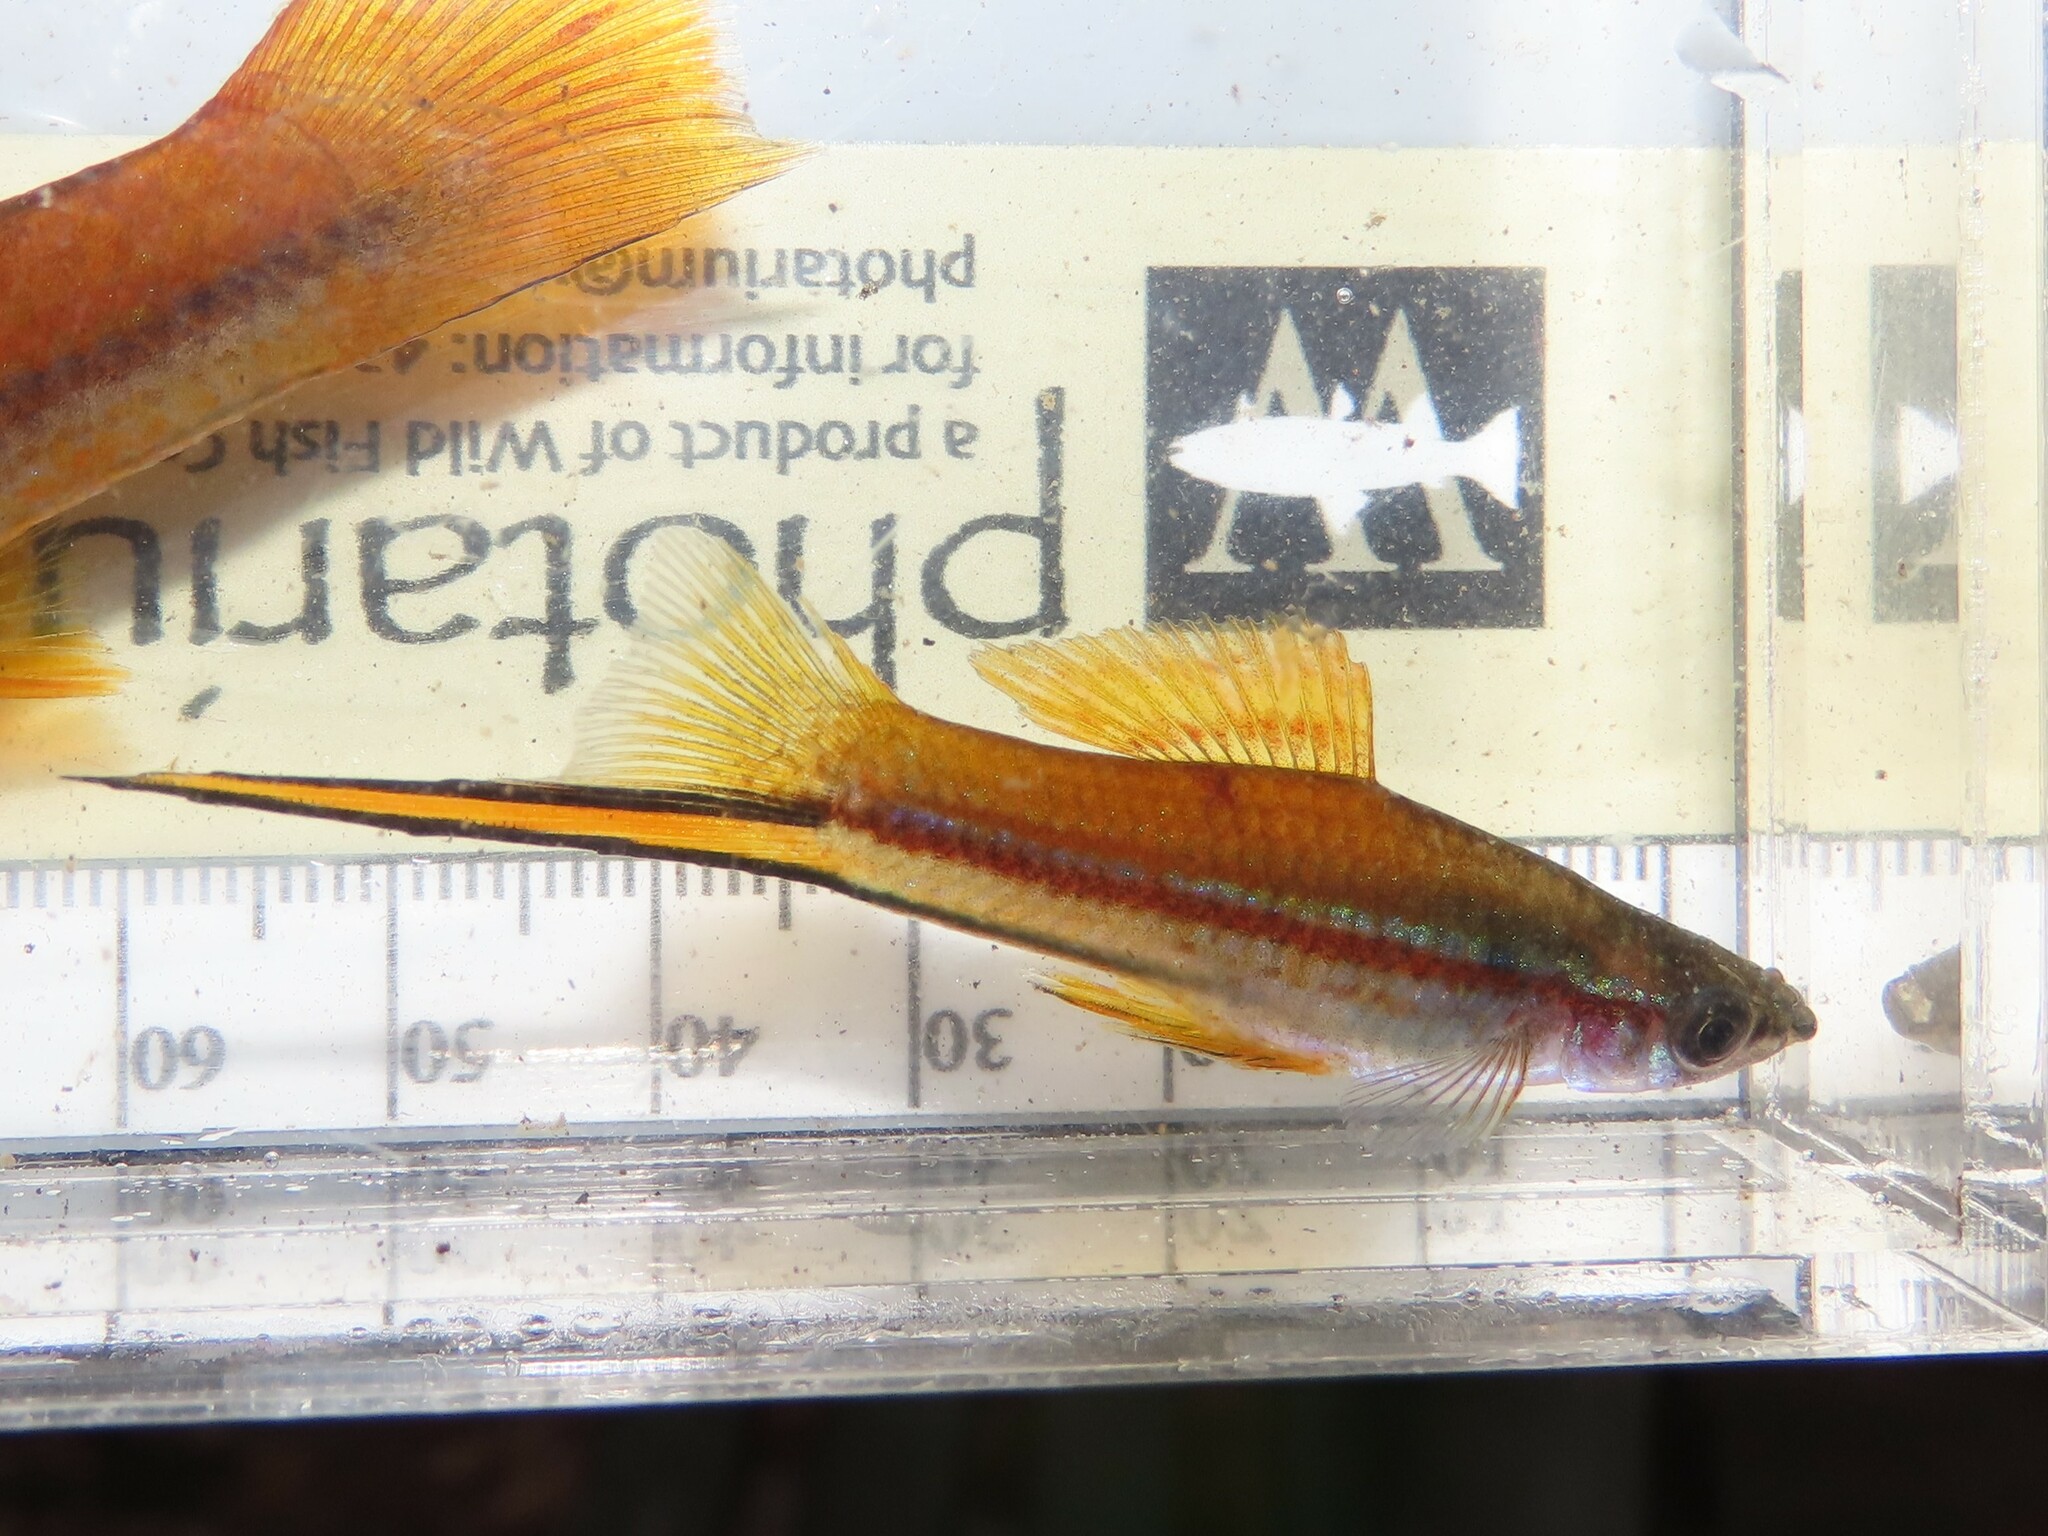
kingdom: Animalia
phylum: Chordata
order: Cyprinodontiformes
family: Poeciliidae
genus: Xiphophorus
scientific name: Xiphophorus hellerii
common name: Green swordtail
